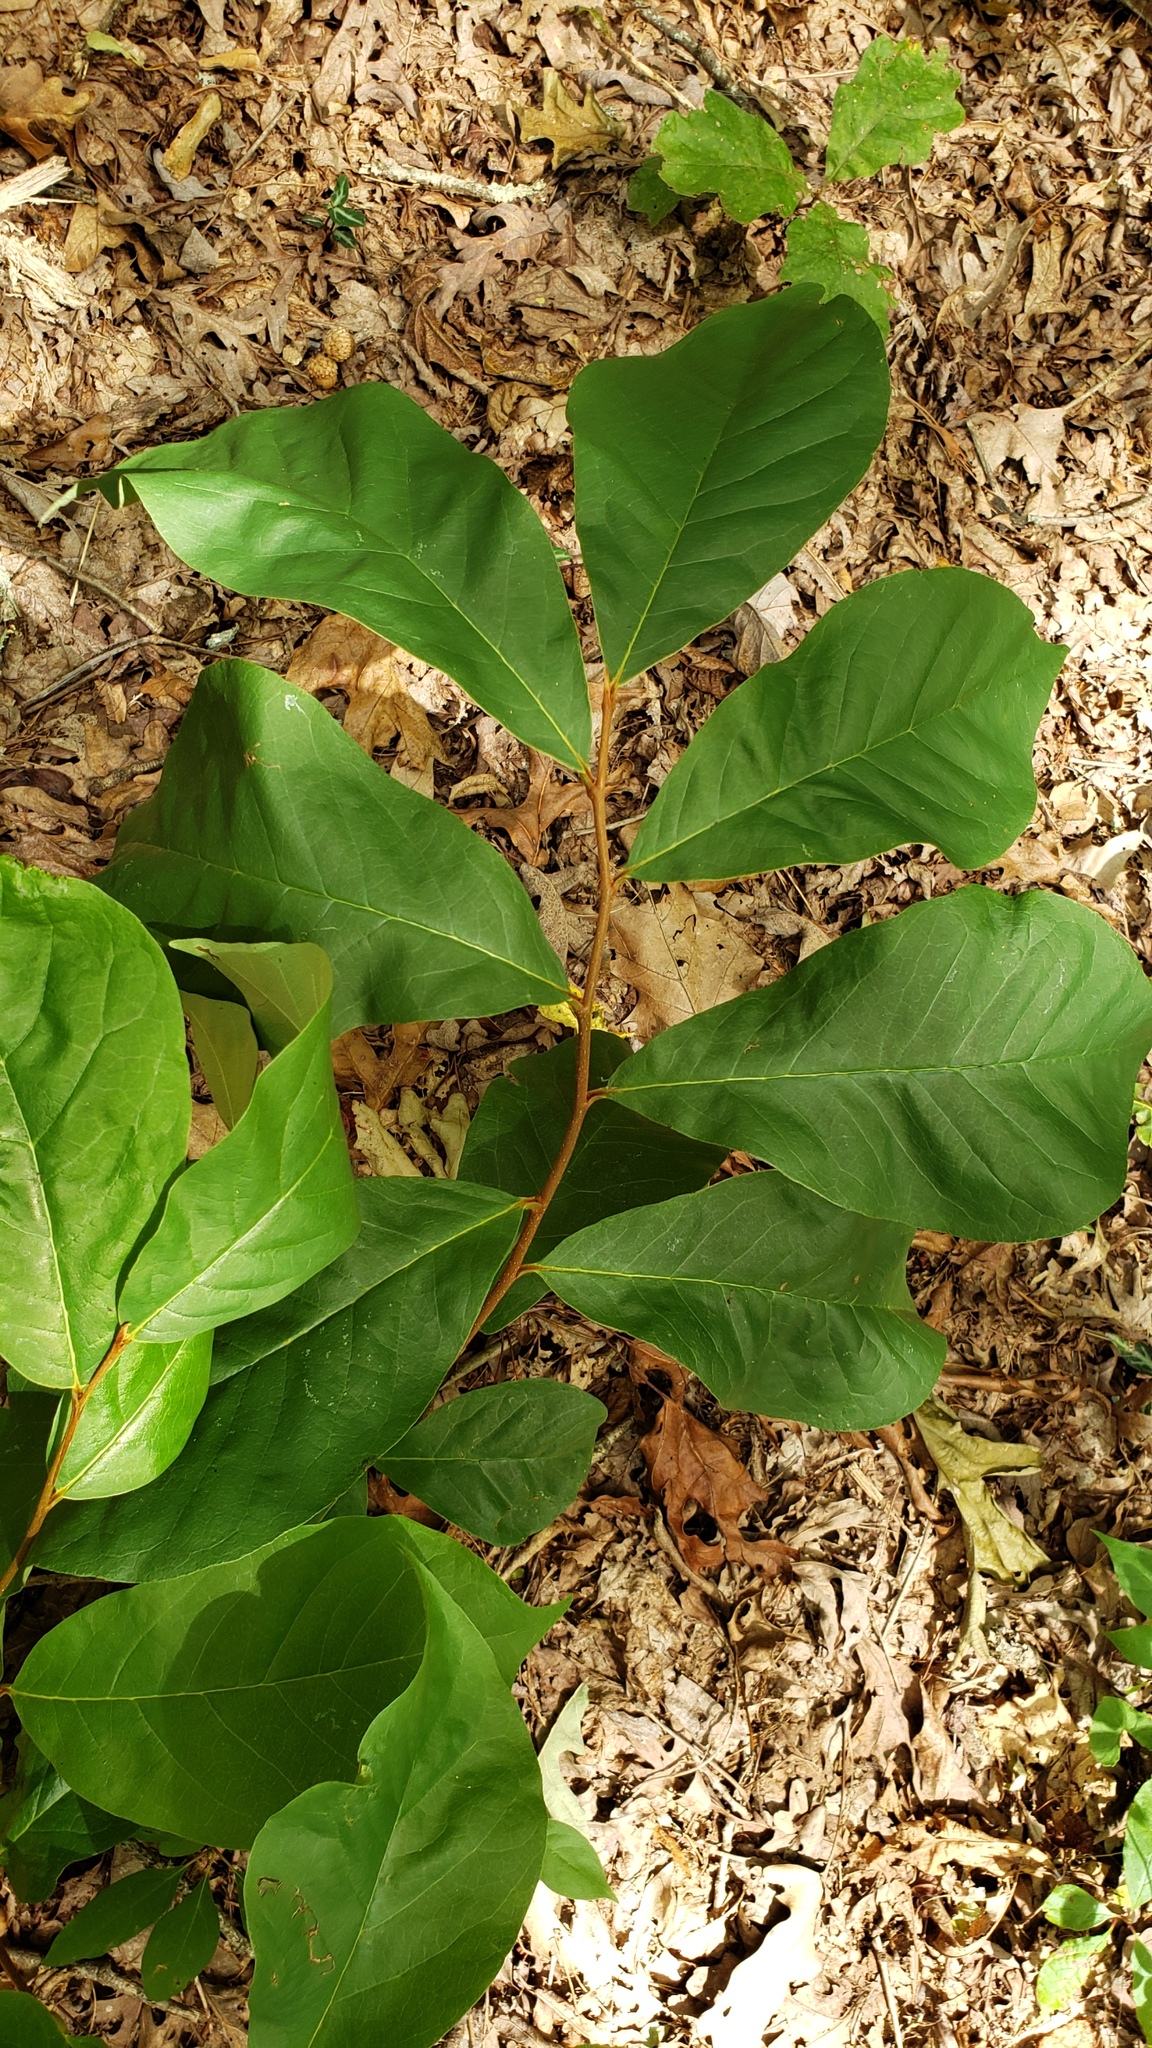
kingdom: Plantae
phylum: Tracheophyta
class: Magnoliopsida
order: Magnoliales
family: Annonaceae
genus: Asimina
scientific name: Asimina parviflora
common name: Dwarf pawpaw
